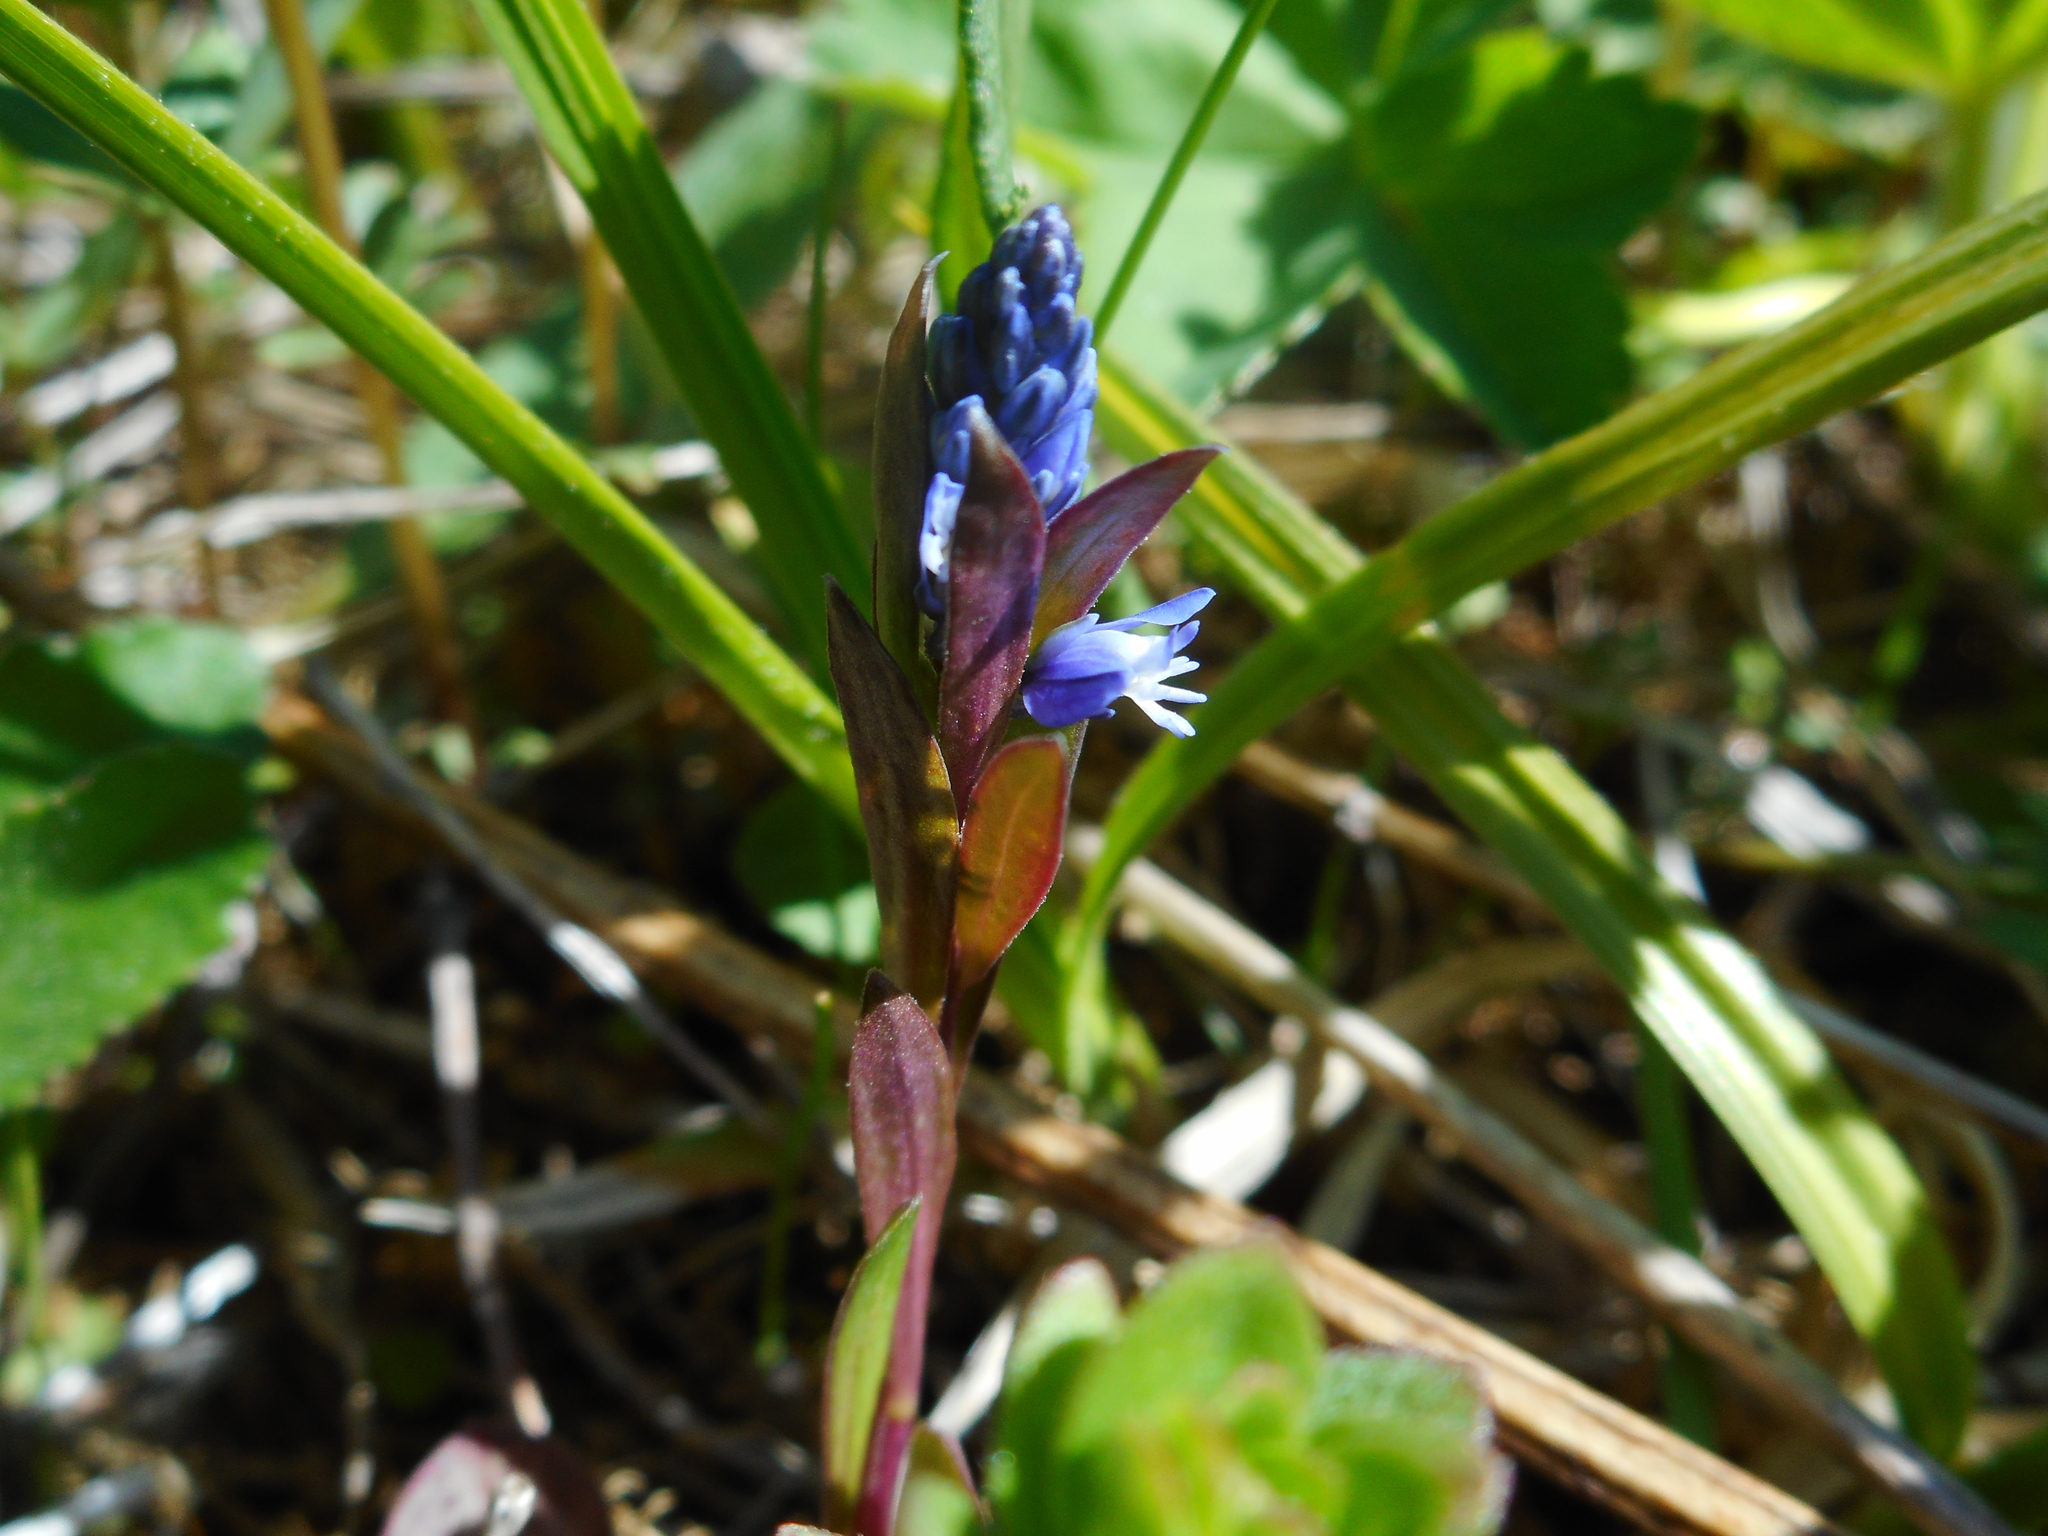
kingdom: Plantae
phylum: Tracheophyta
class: Magnoliopsida
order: Fabales
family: Polygalaceae
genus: Polygala
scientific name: Polygala amarella
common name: Dwarf milkwort
